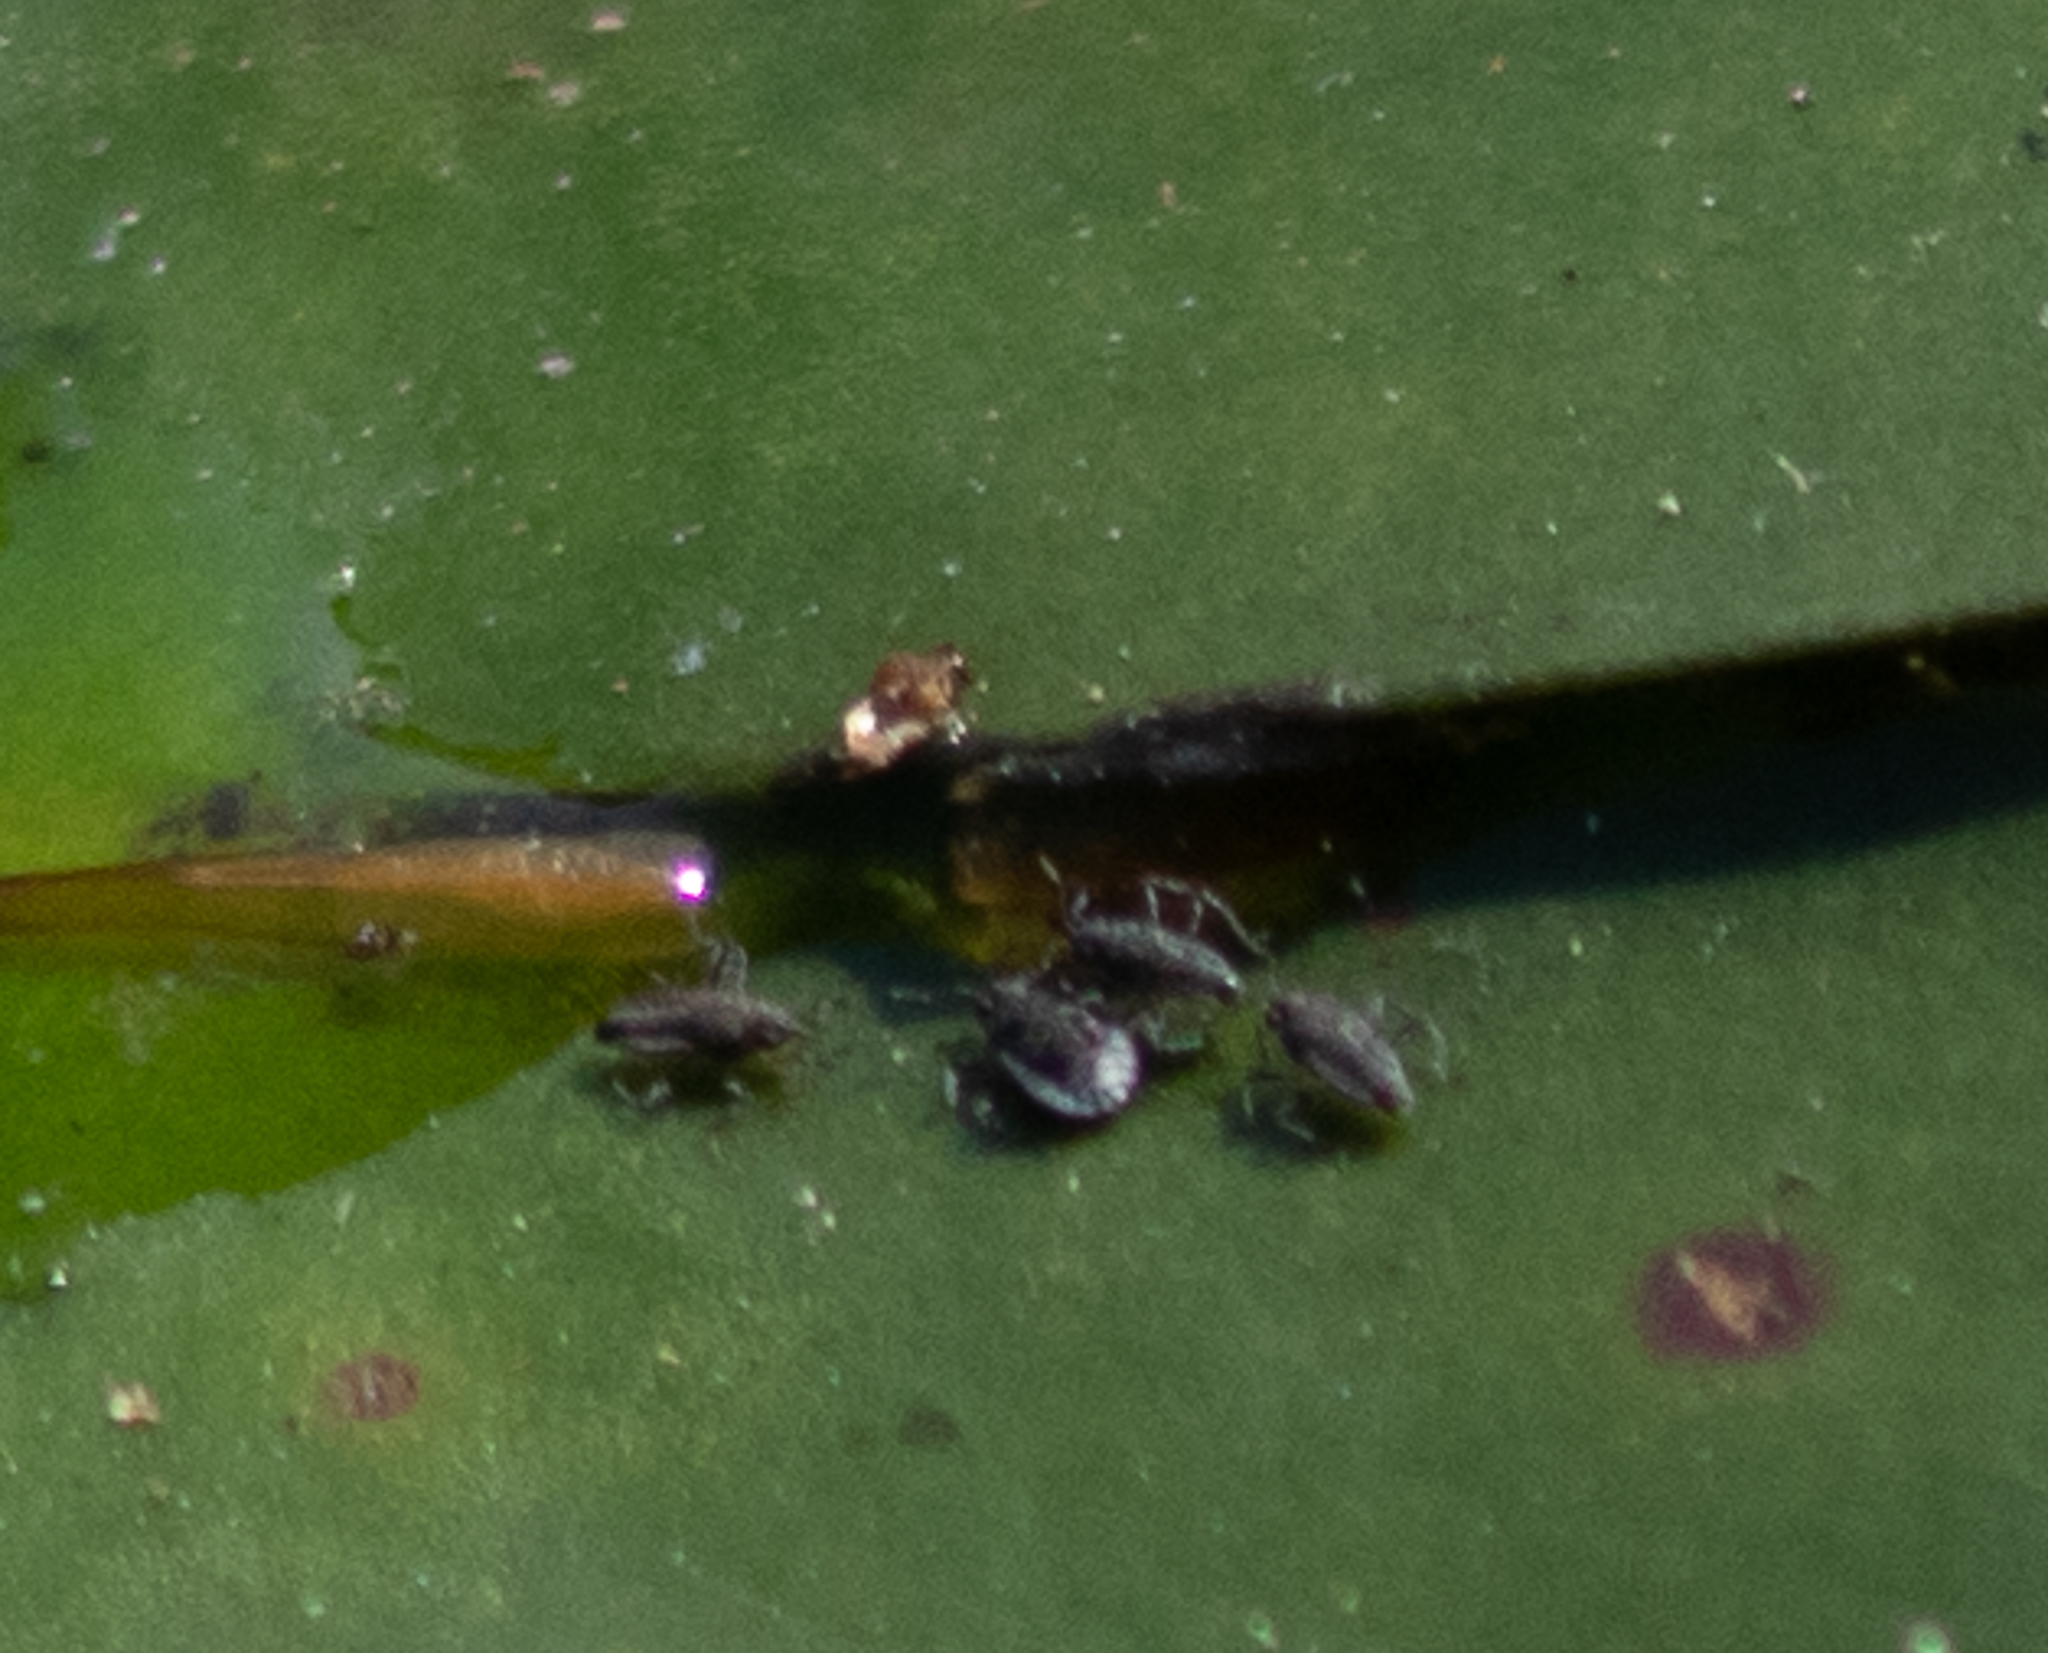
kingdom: Animalia
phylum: Arthropoda
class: Insecta
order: Hemiptera
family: Veliidae
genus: Microvelia
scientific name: Microvelia
